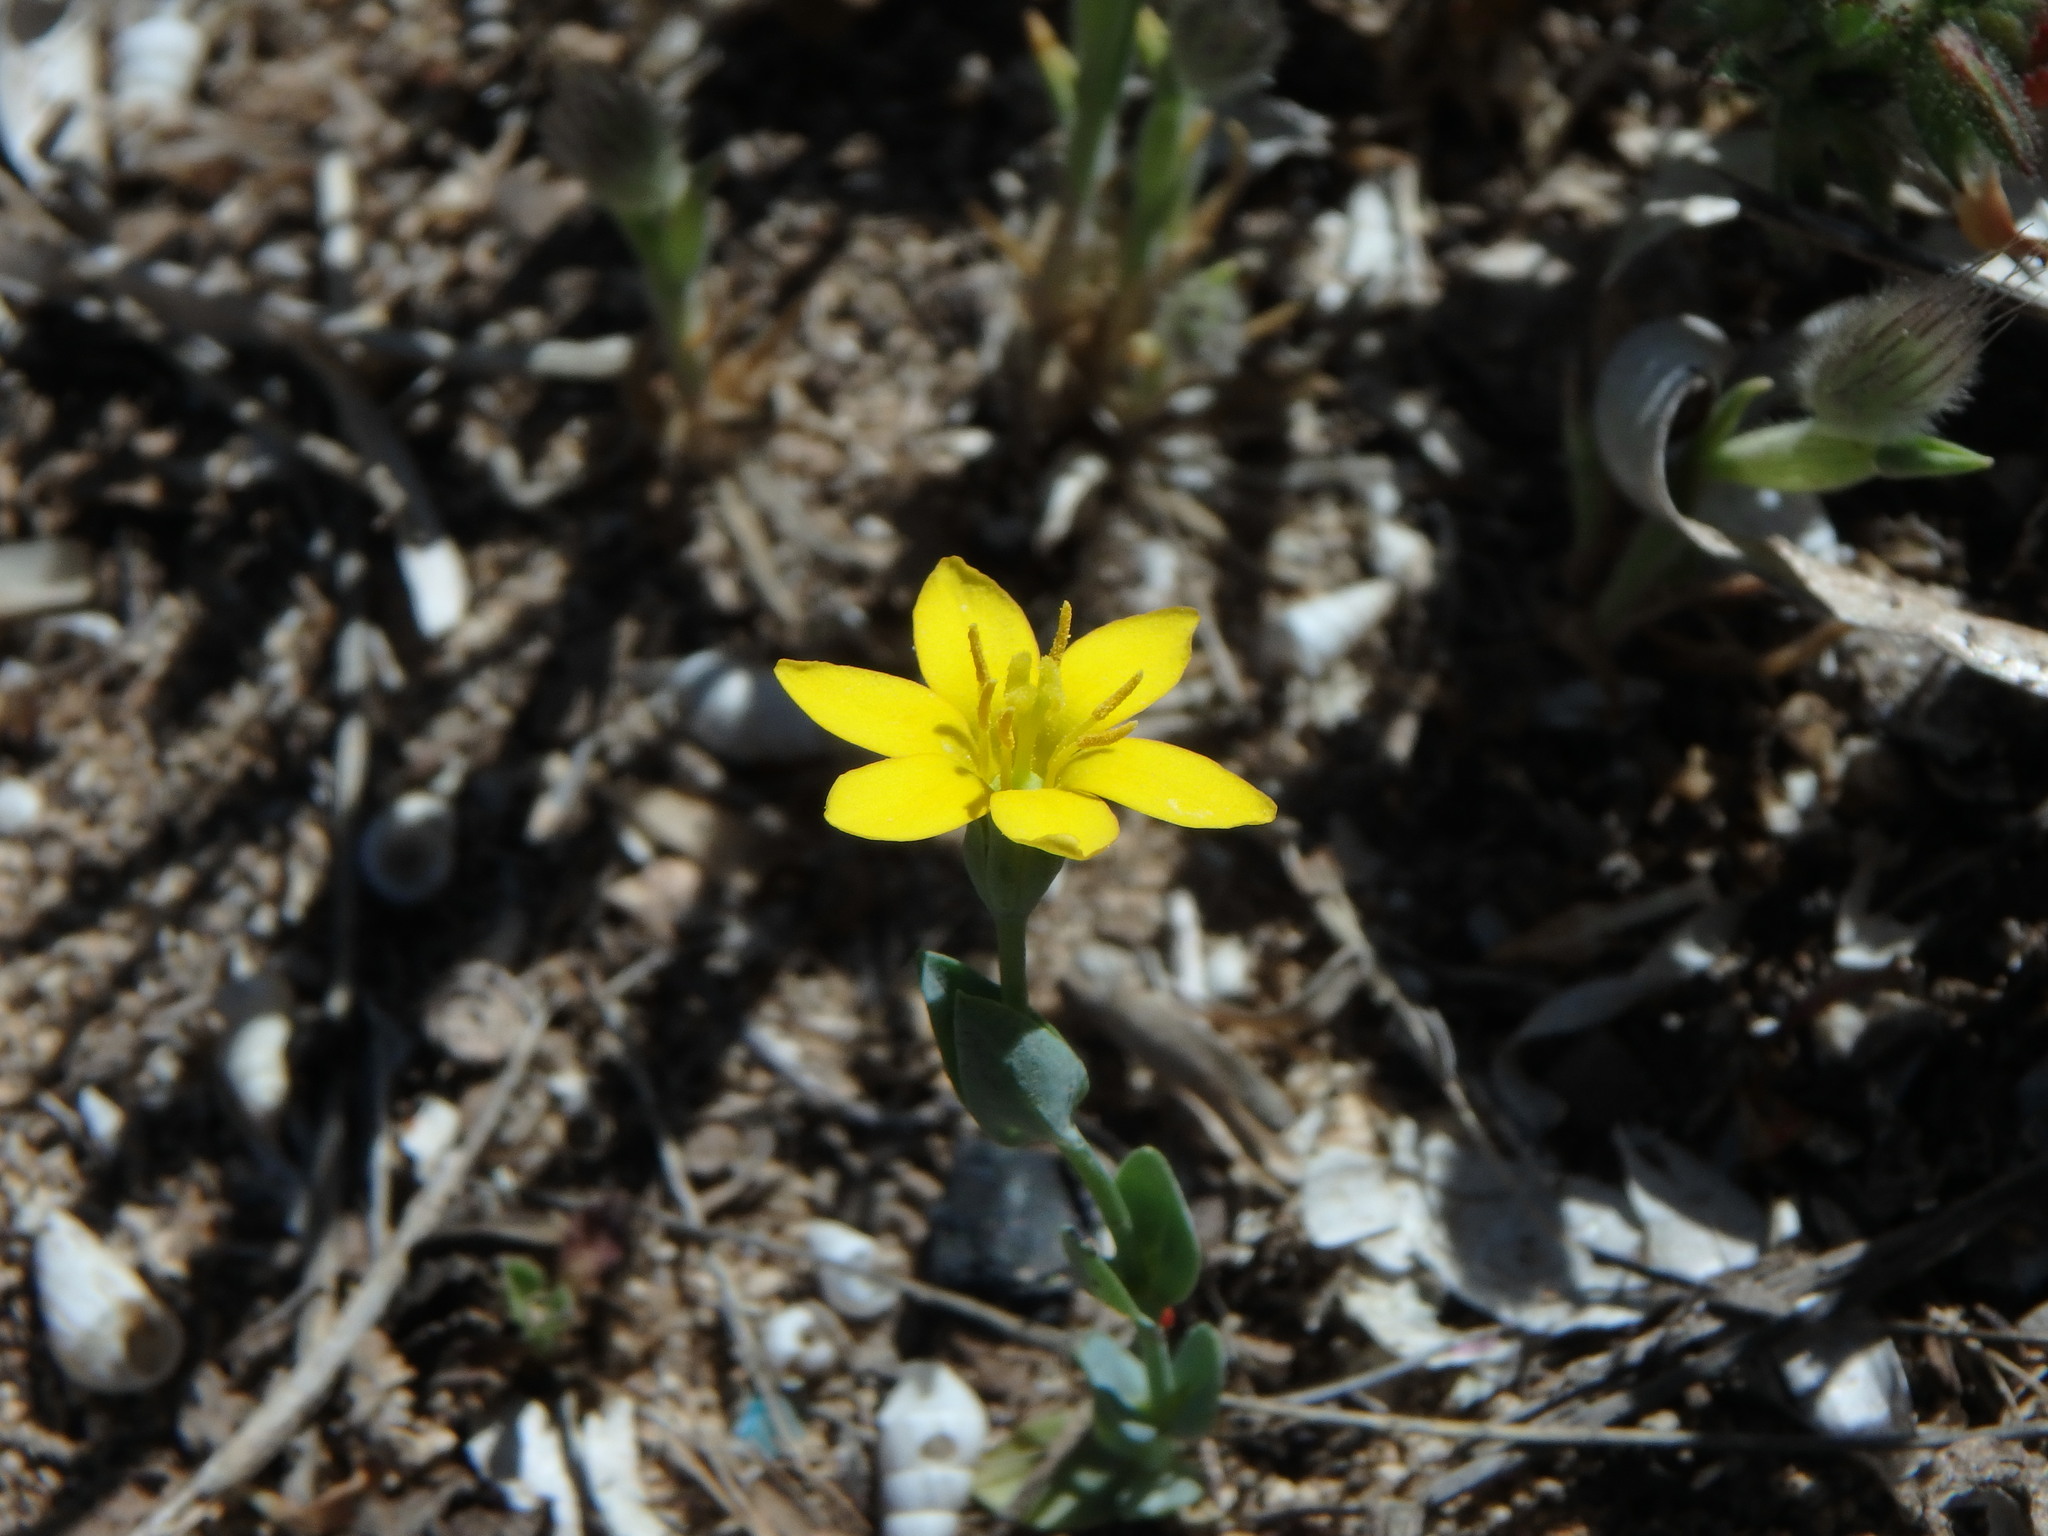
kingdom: Plantae
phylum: Tracheophyta
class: Magnoliopsida
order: Gentianales
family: Gentianaceae
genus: Blackstonia
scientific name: Blackstonia perfoliata
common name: Yellow-wort
